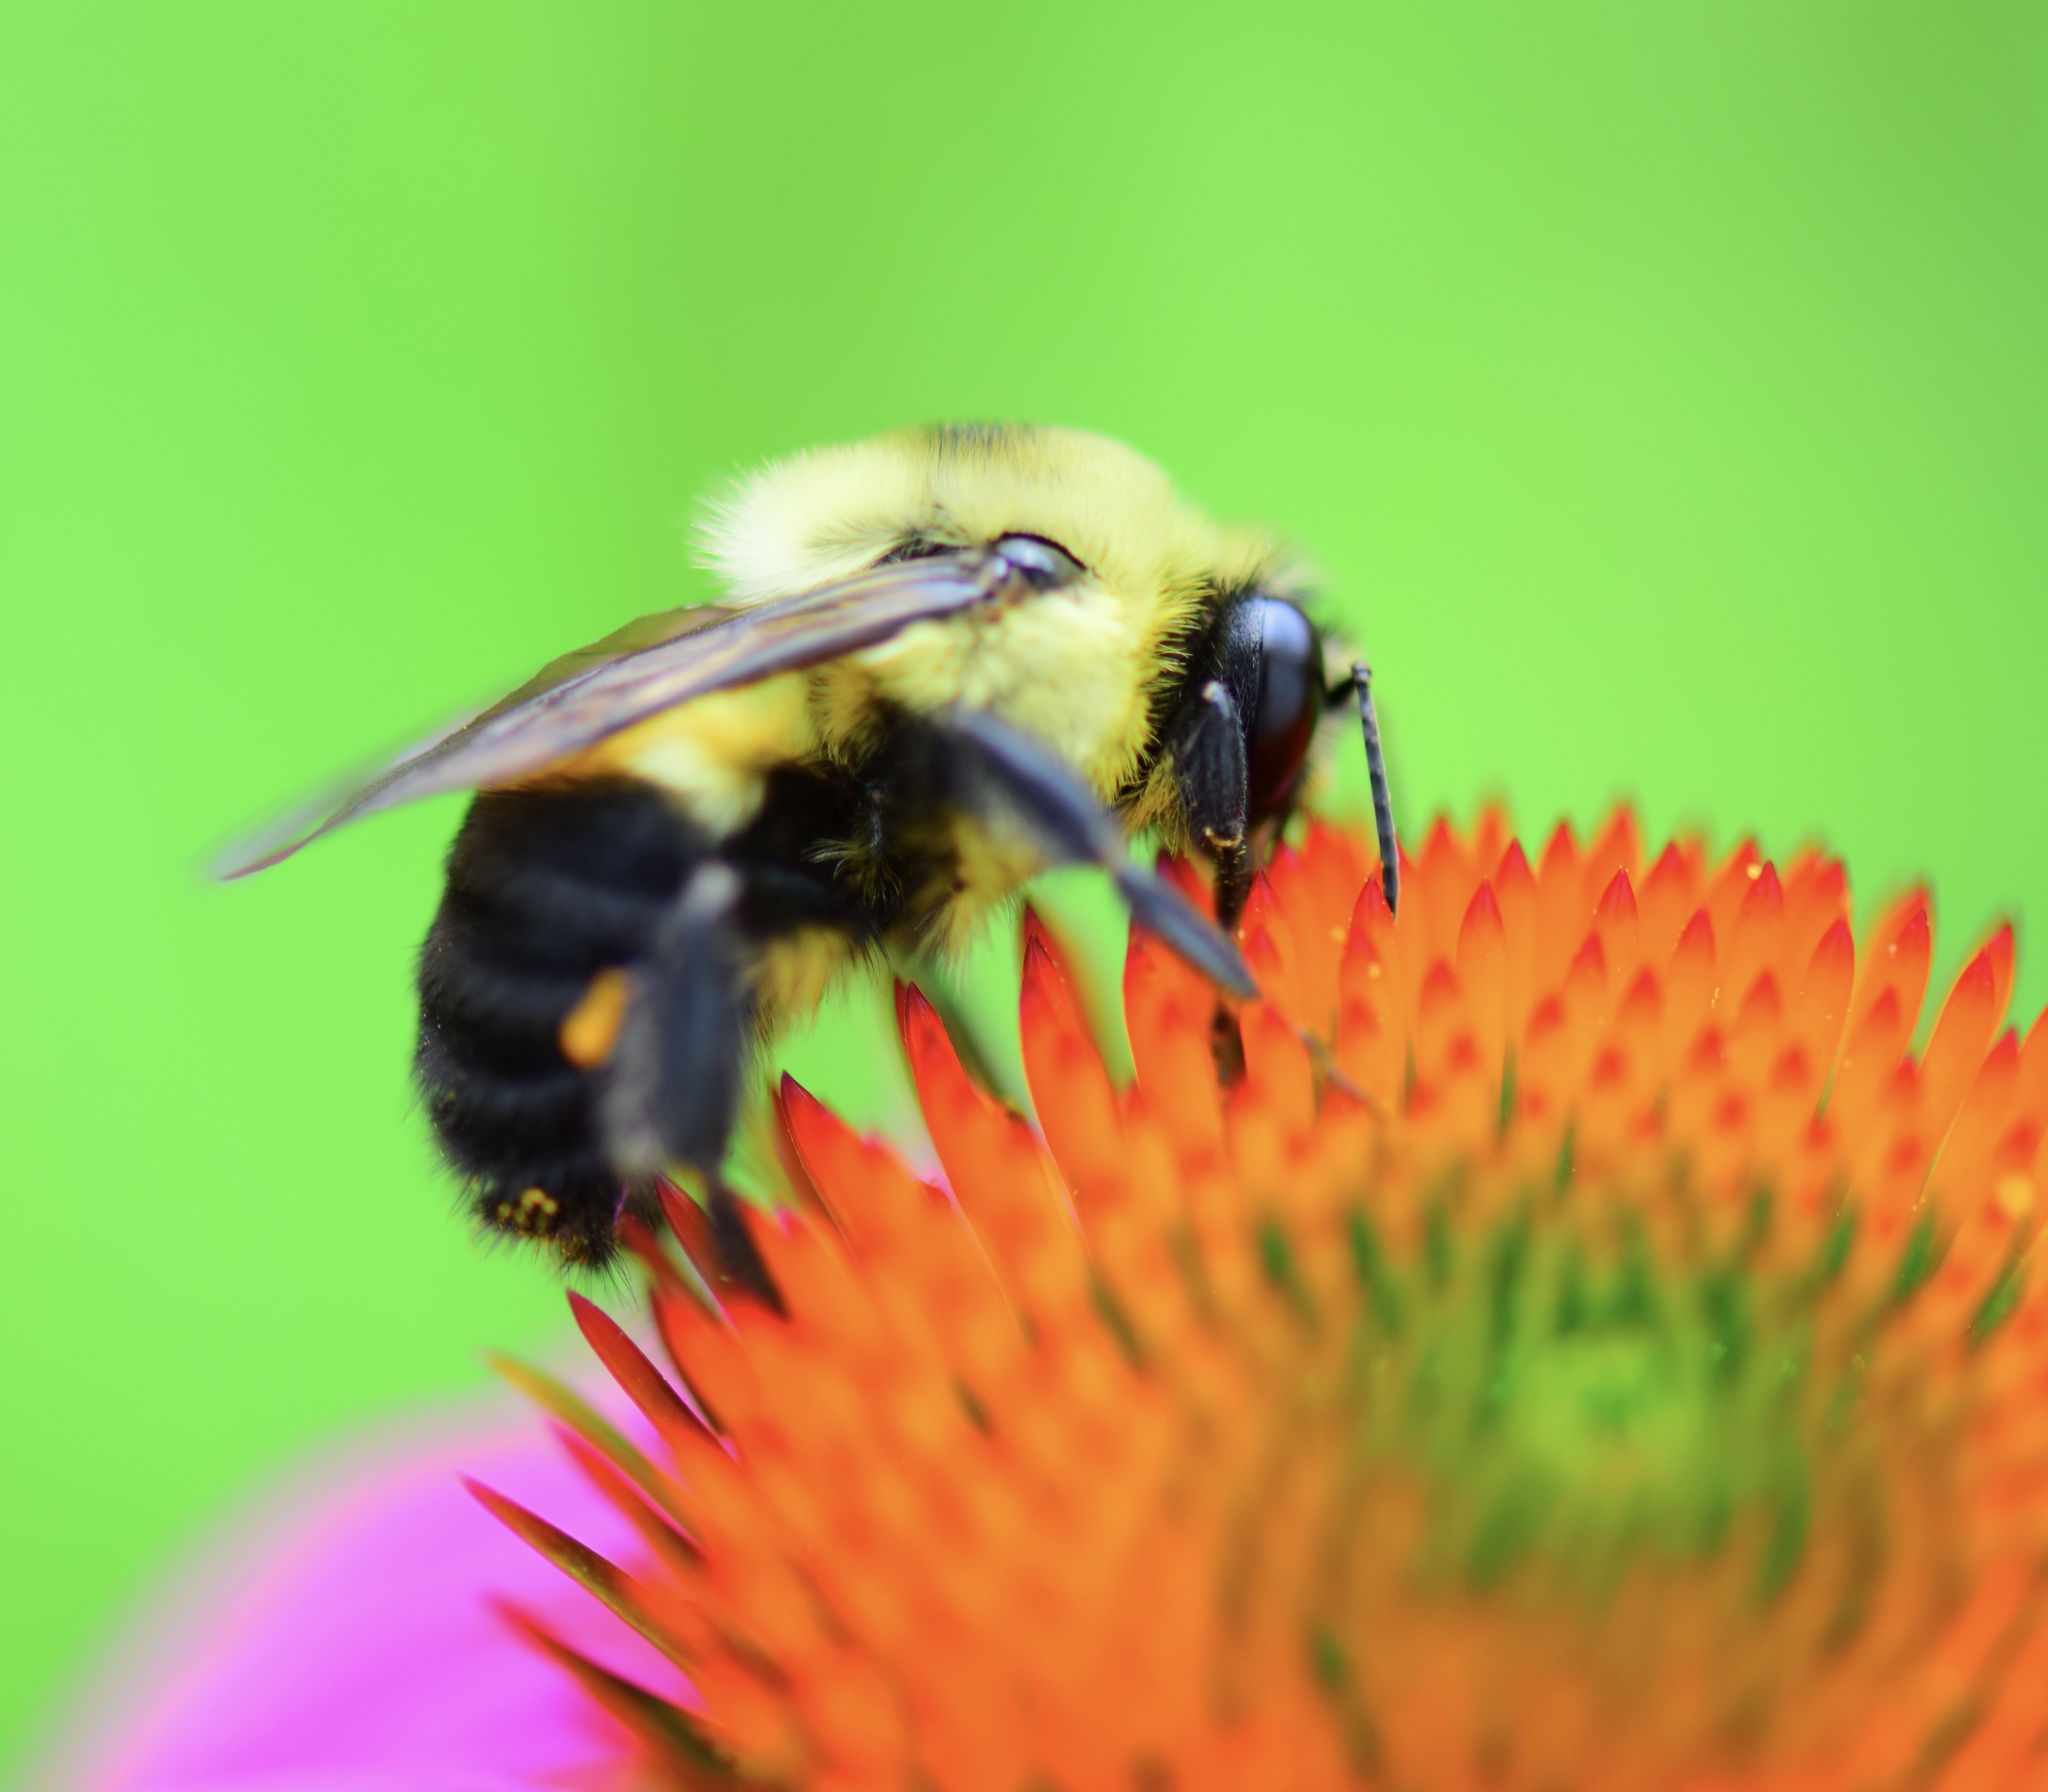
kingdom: Animalia
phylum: Arthropoda
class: Insecta
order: Hymenoptera
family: Apidae
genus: Bombus
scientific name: Bombus griseocollis
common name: Brown-belted bumble bee
